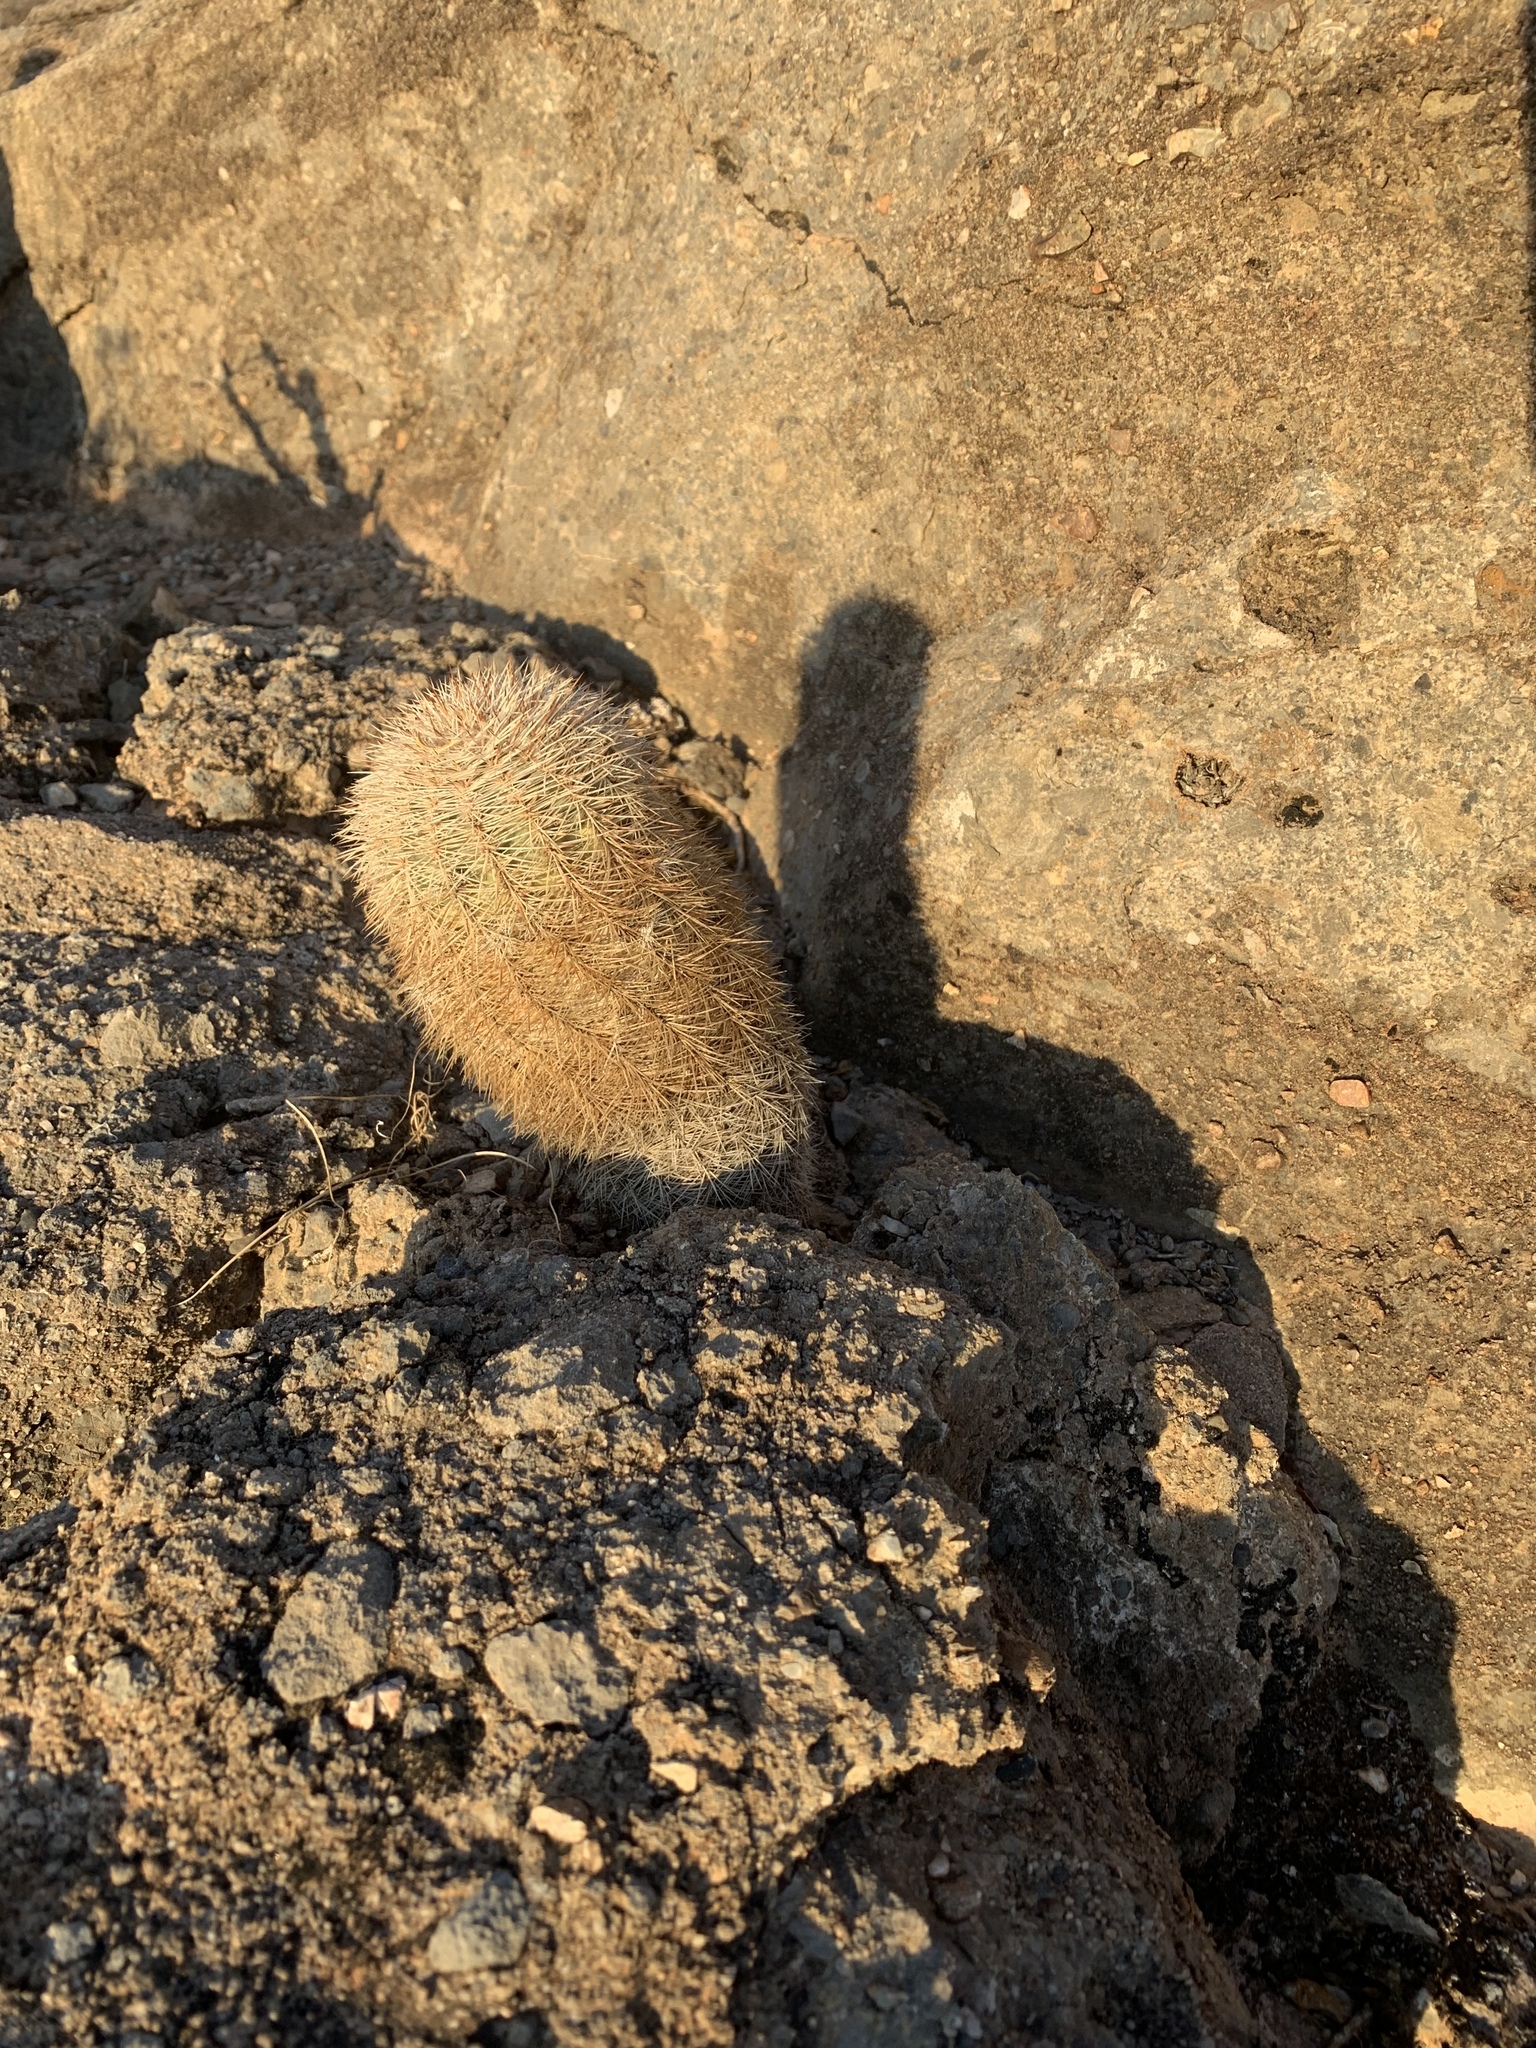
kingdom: Plantae
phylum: Tracheophyta
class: Magnoliopsida
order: Caryophyllales
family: Cactaceae
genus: Echinocereus
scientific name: Echinocereus dasyacanthus
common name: Spiny hedgehog cactus
